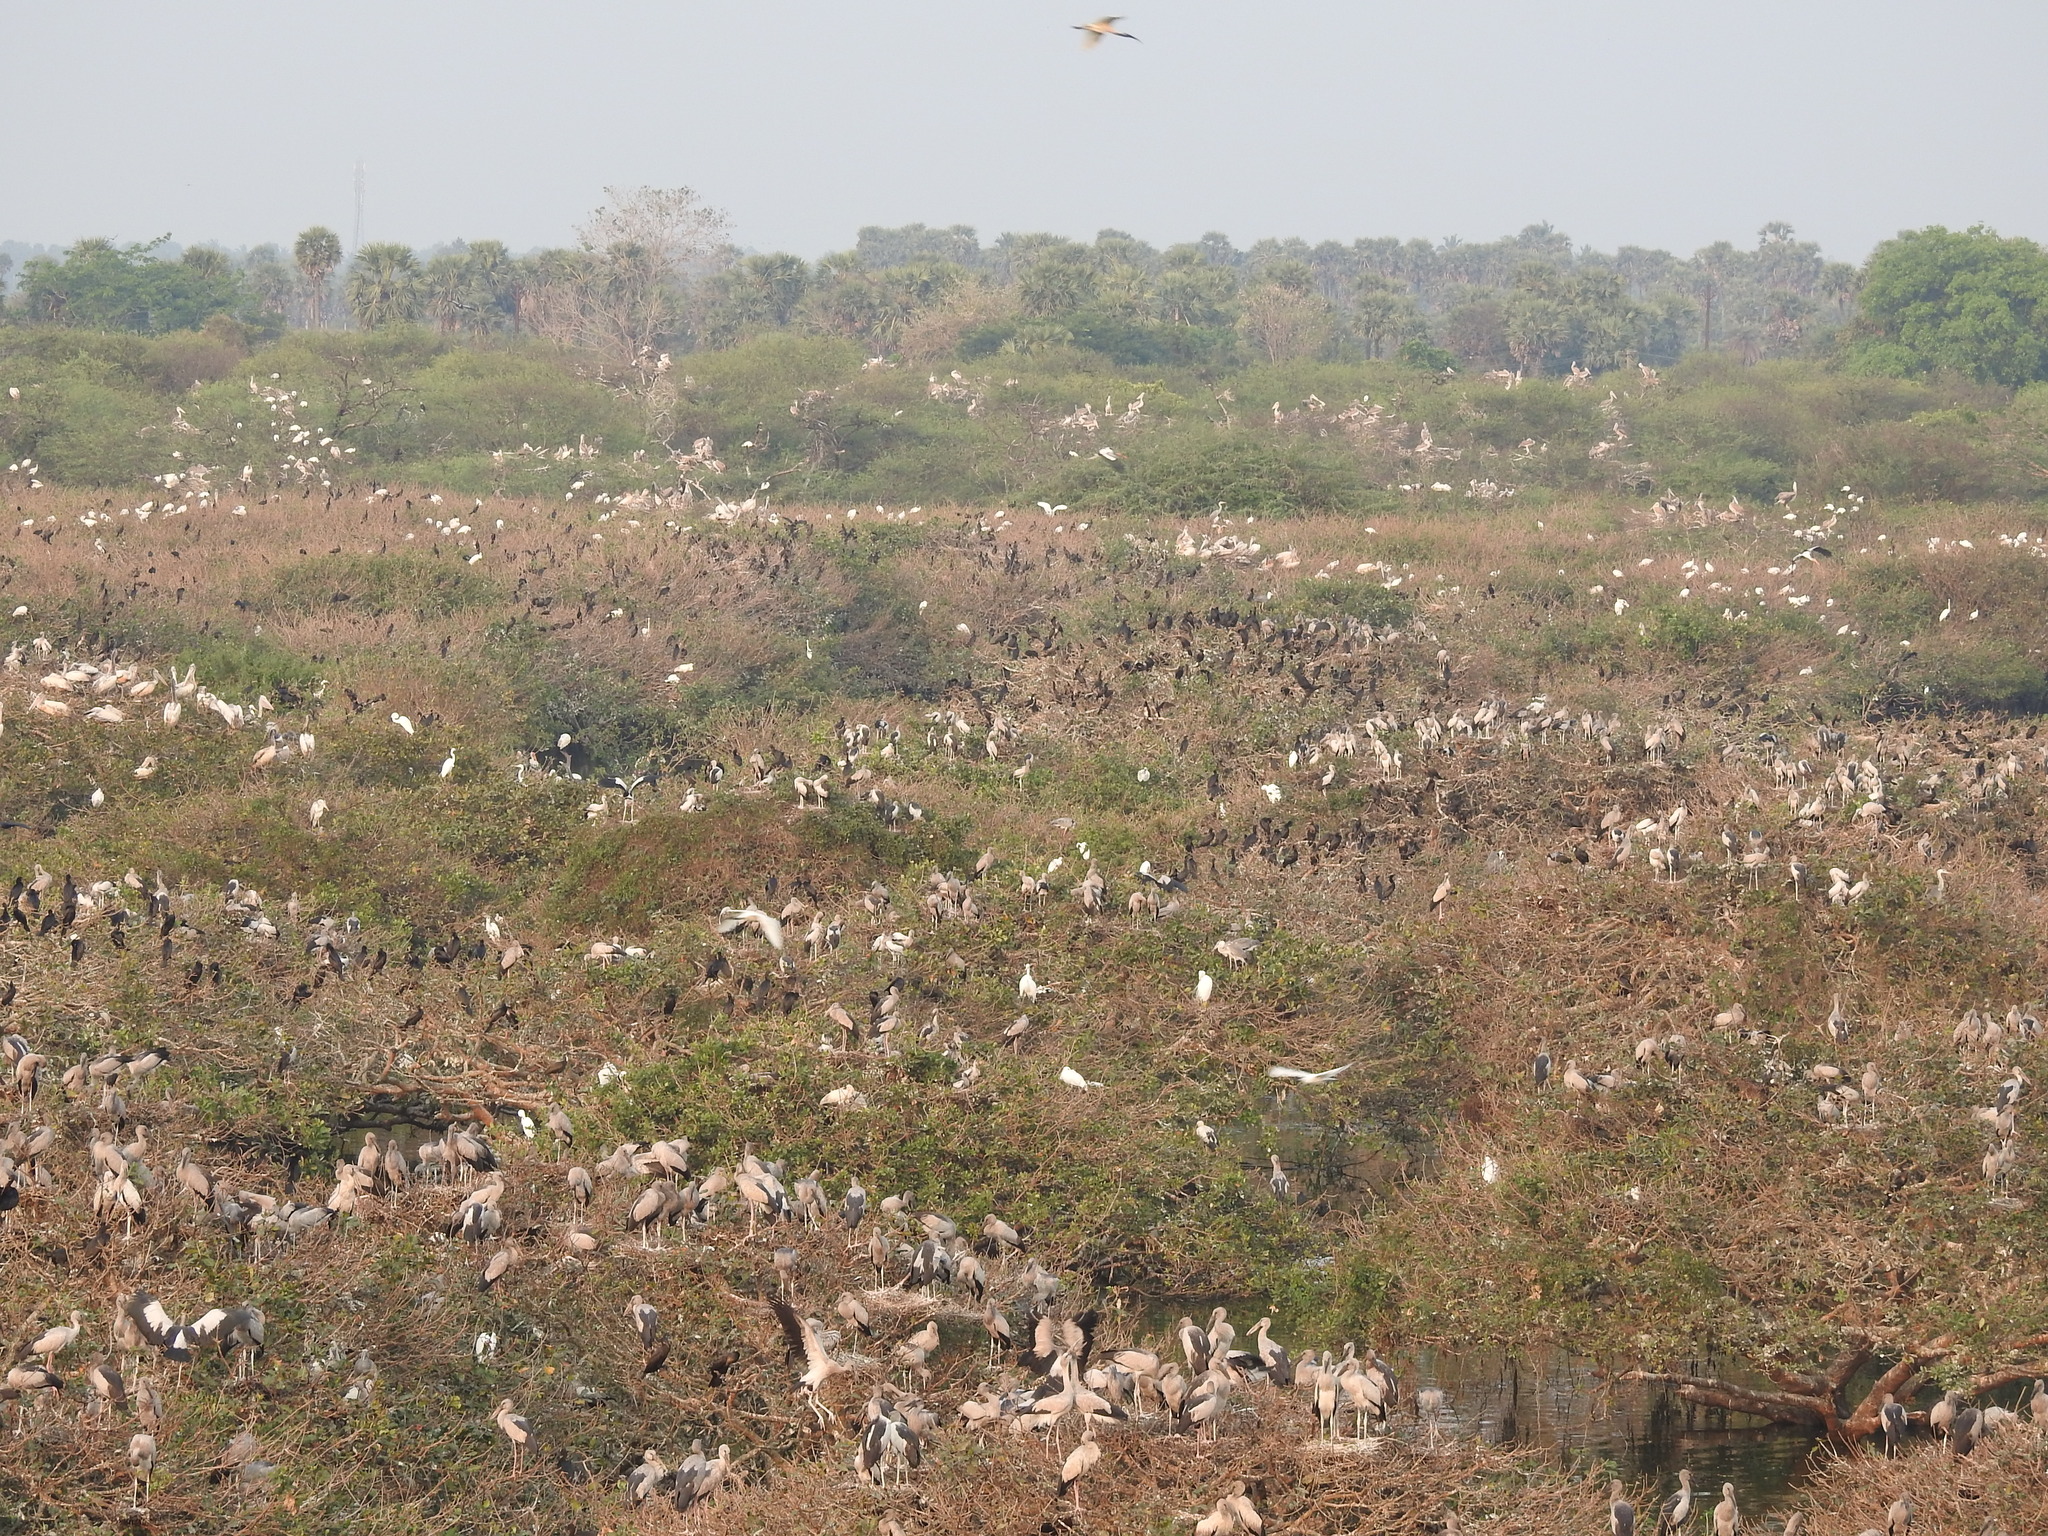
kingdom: Animalia
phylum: Chordata
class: Aves
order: Pelecaniformes
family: Threskiornithidae
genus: Threskiornis
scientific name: Threskiornis melanocephalus
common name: Black-headed ibis
